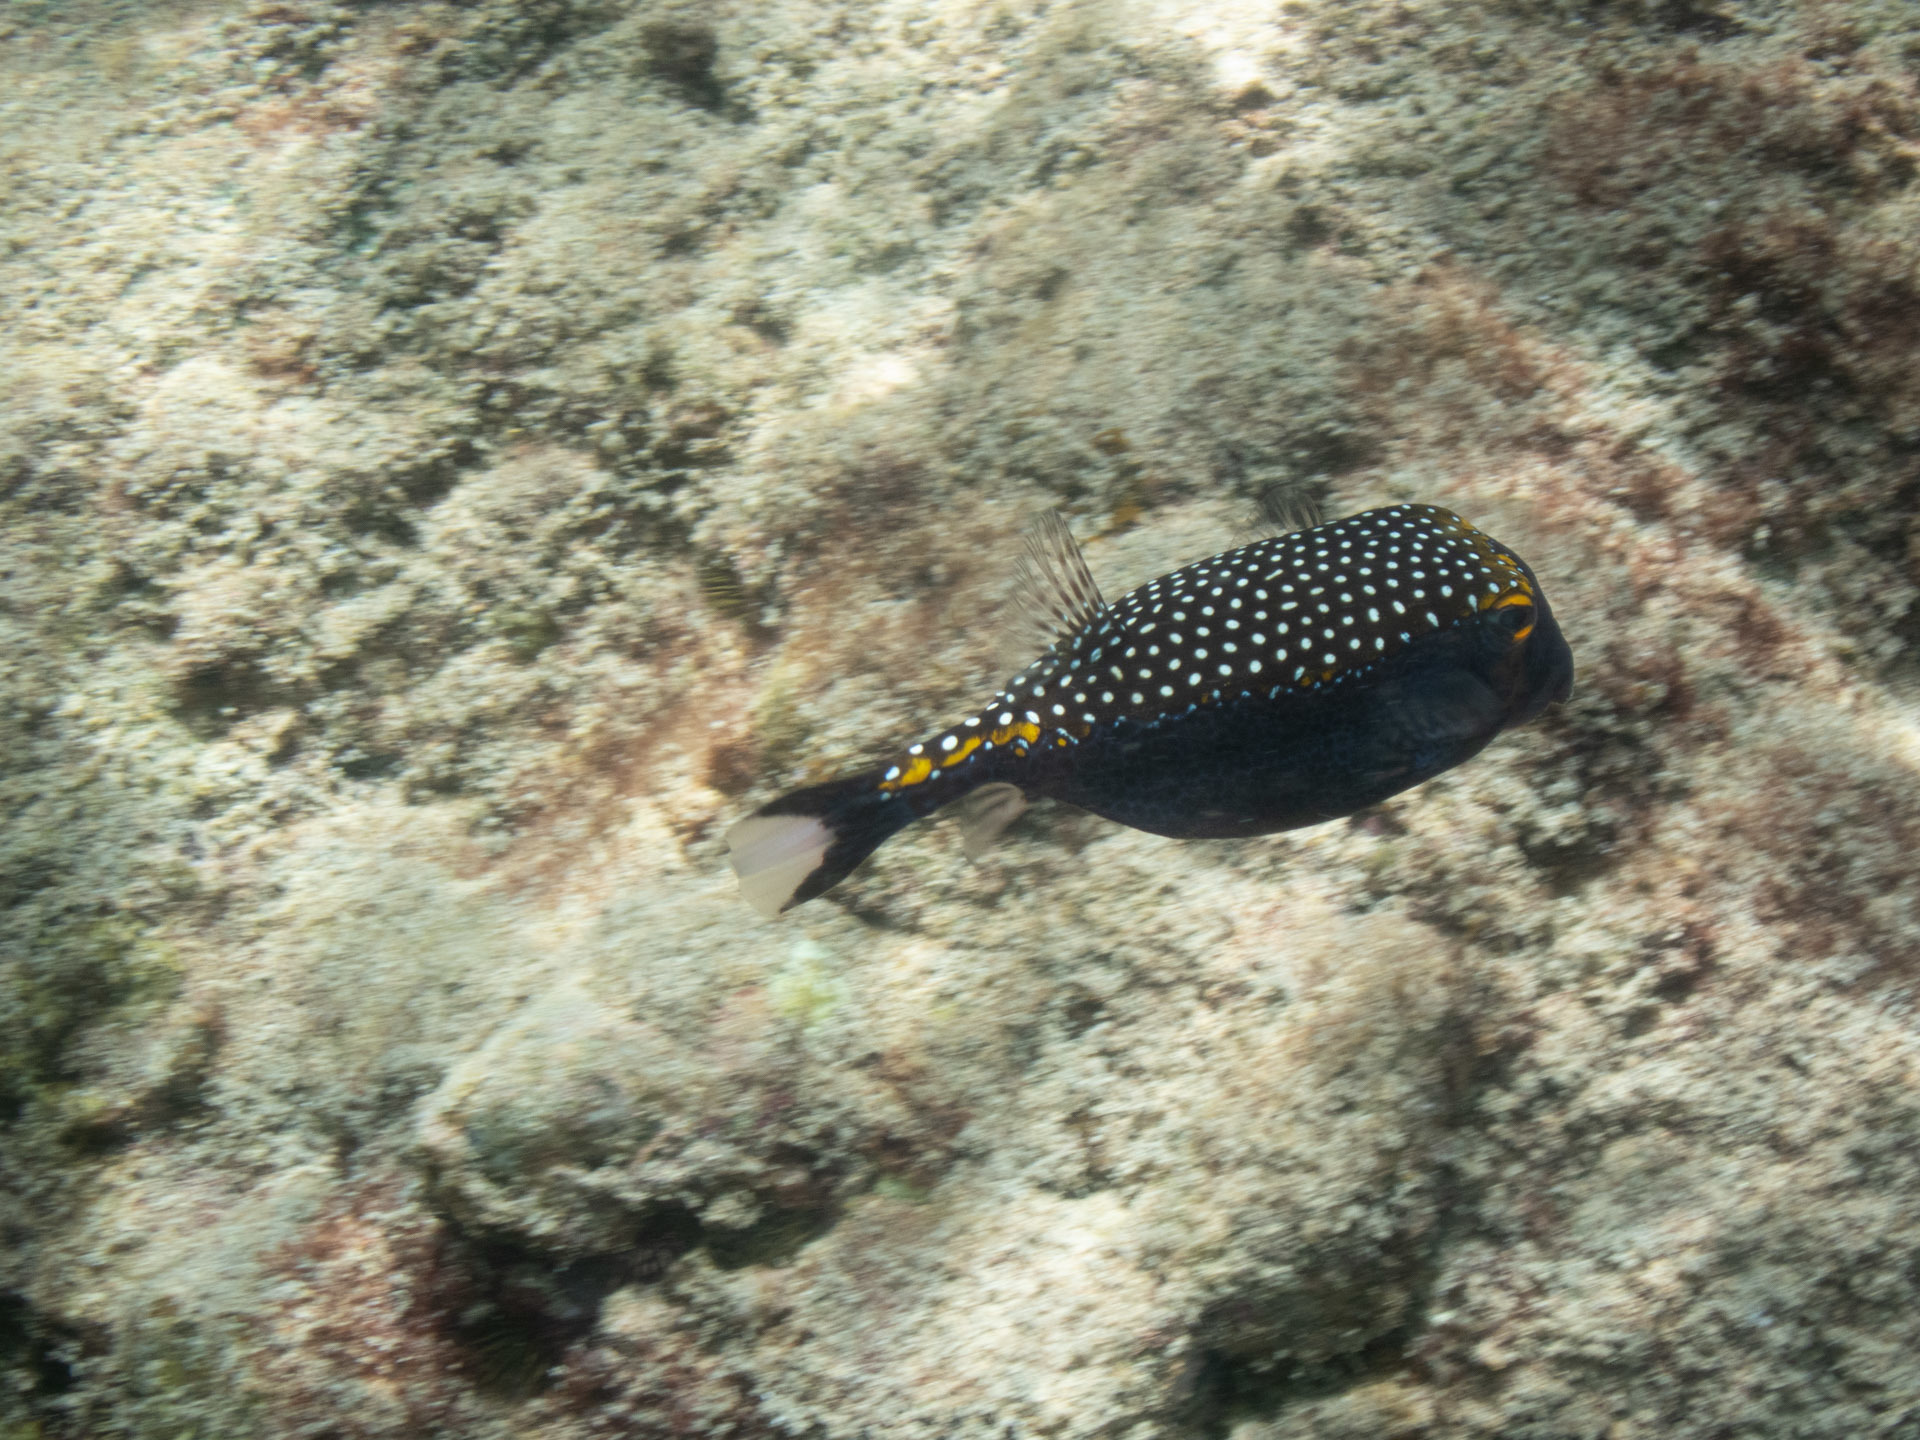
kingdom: Animalia
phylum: Chordata
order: Tetraodontiformes
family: Ostraciidae
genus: Ostracion
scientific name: Ostracion meleagris
